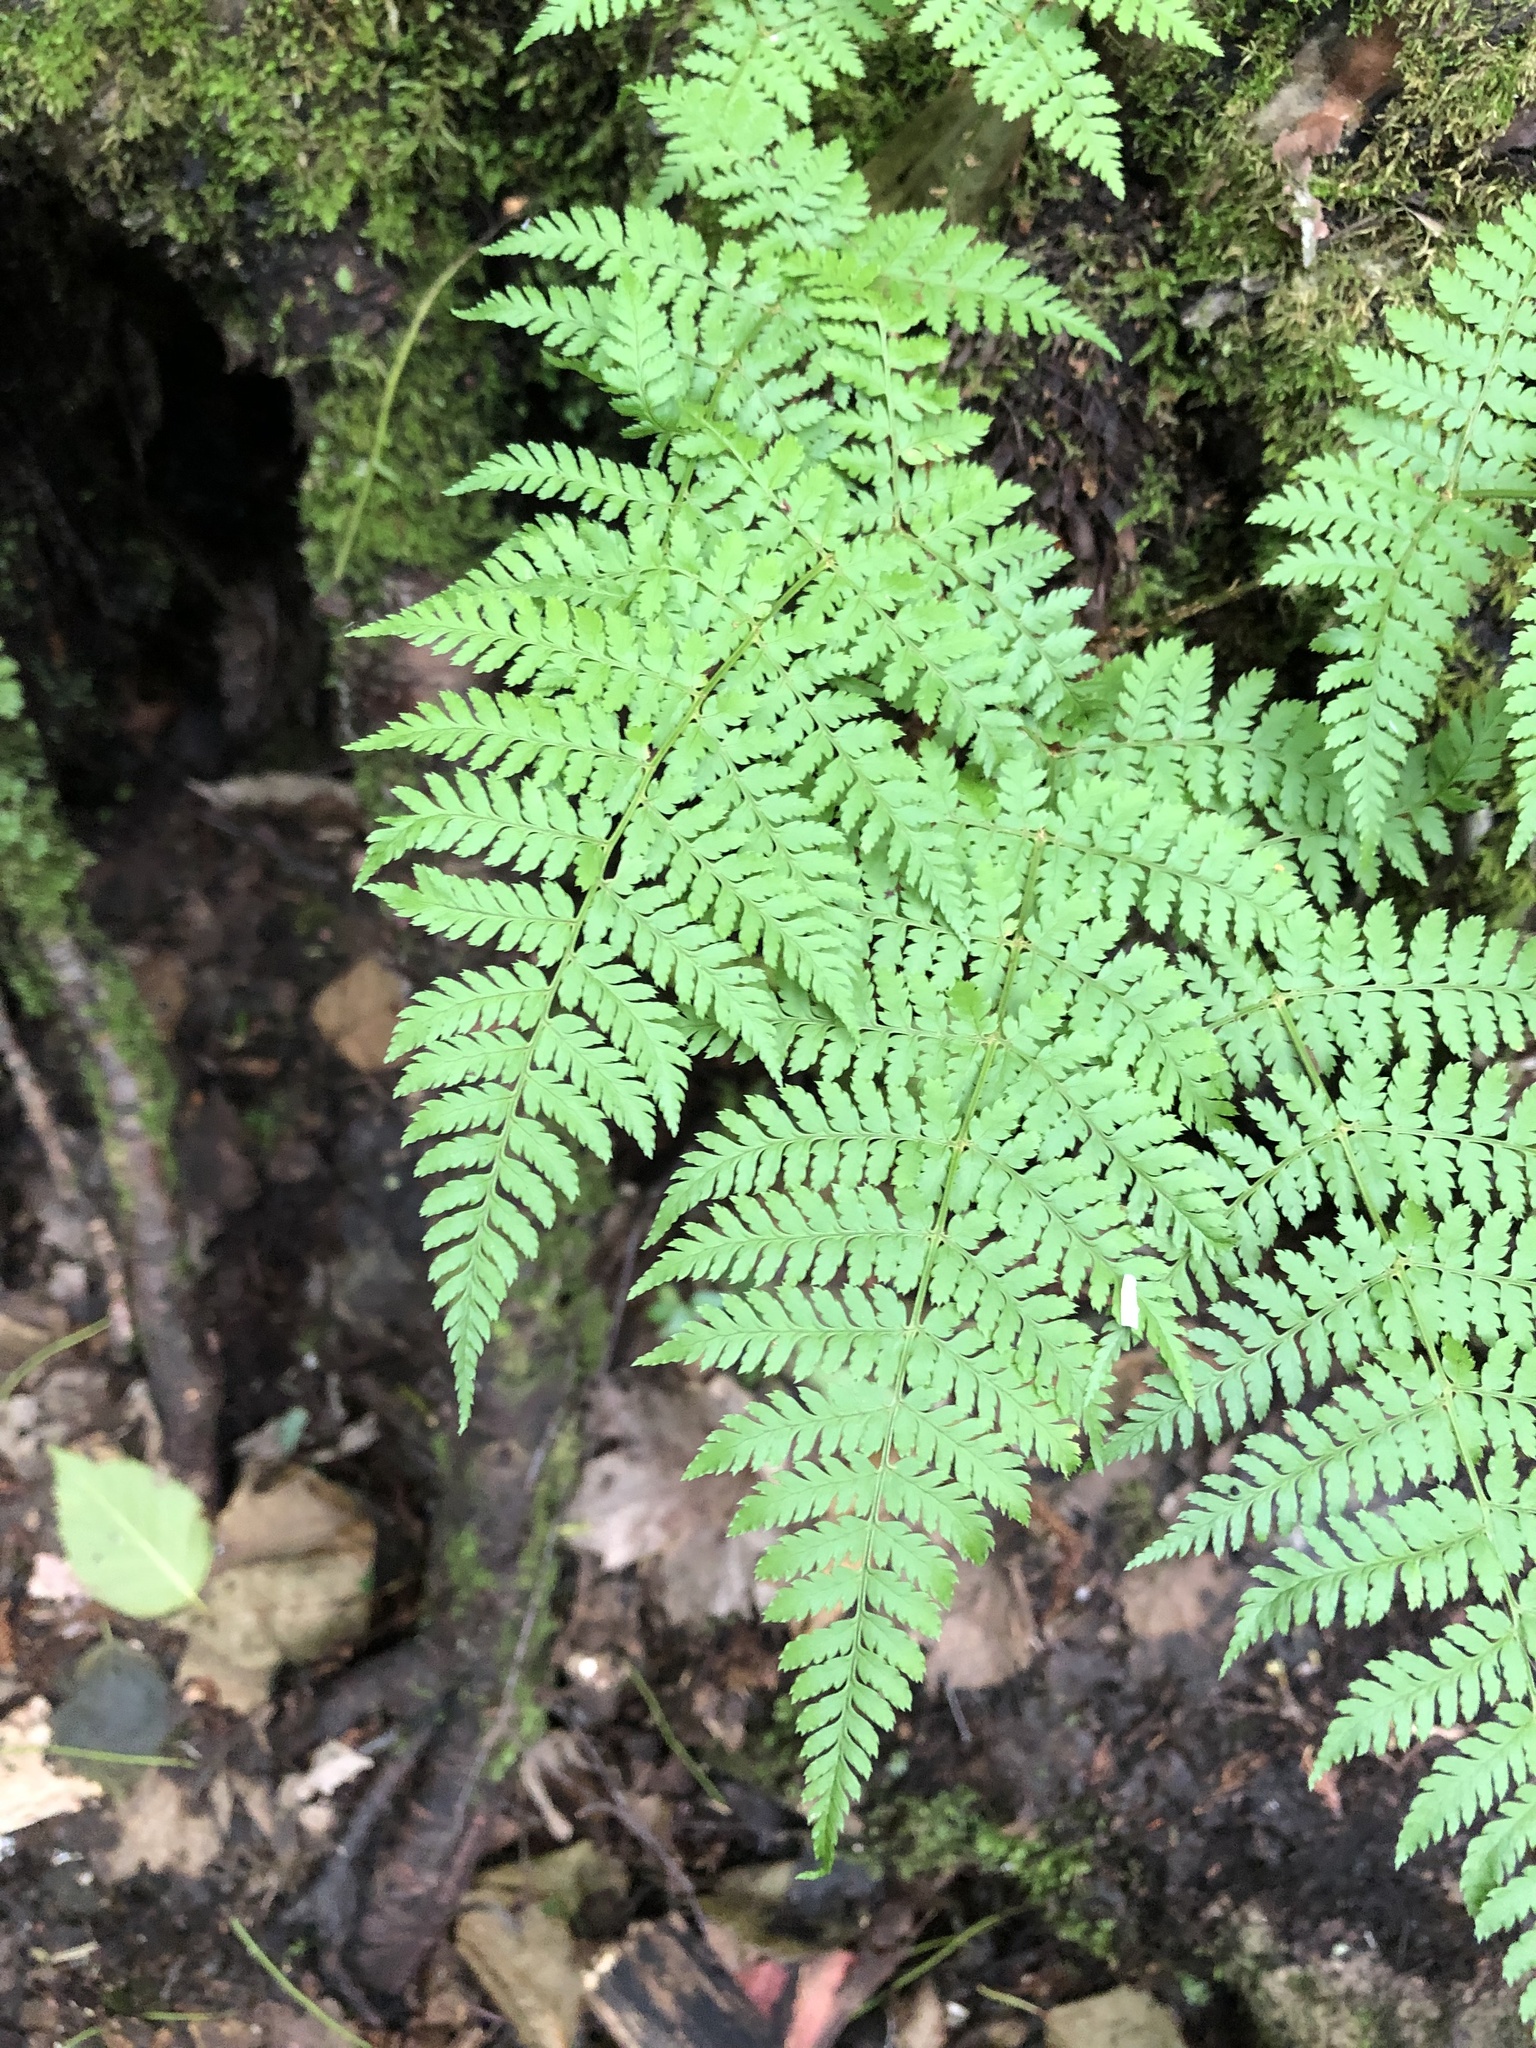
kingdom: Plantae
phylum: Tracheophyta
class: Polypodiopsida
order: Polypodiales
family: Dryopteridaceae
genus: Dryopteris
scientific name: Dryopteris intermedia
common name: Evergreen wood fern
